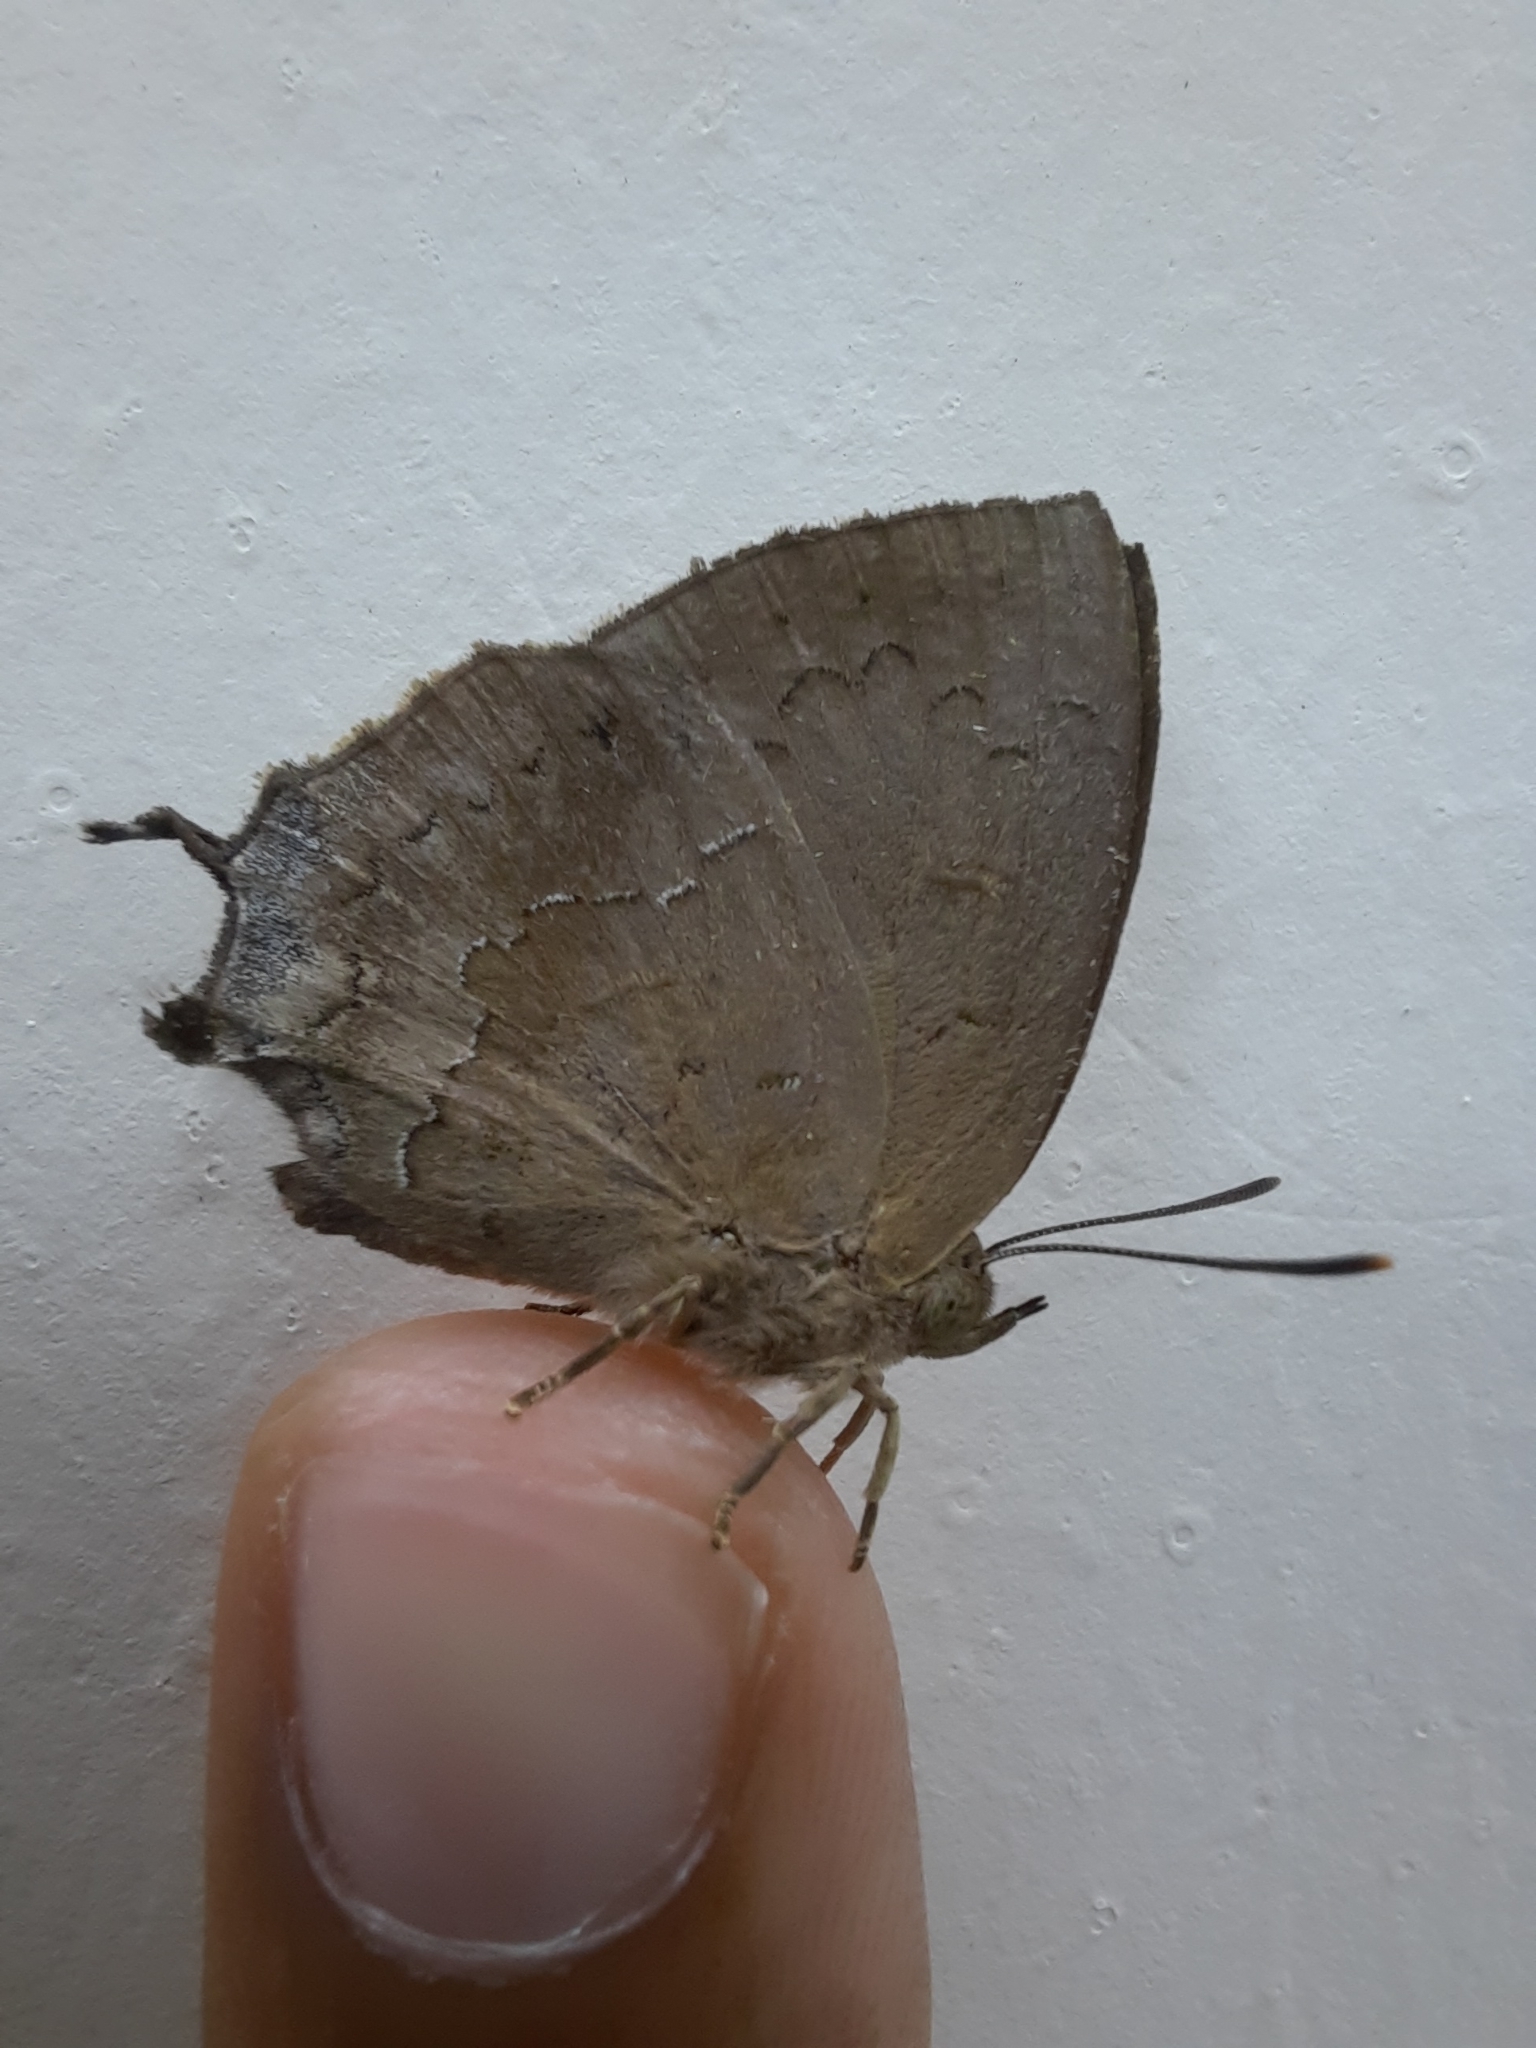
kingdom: Animalia
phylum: Arthropoda
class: Insecta
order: Lepidoptera
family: Lycaenidae
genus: Surendra
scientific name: Surendra quercetorum
